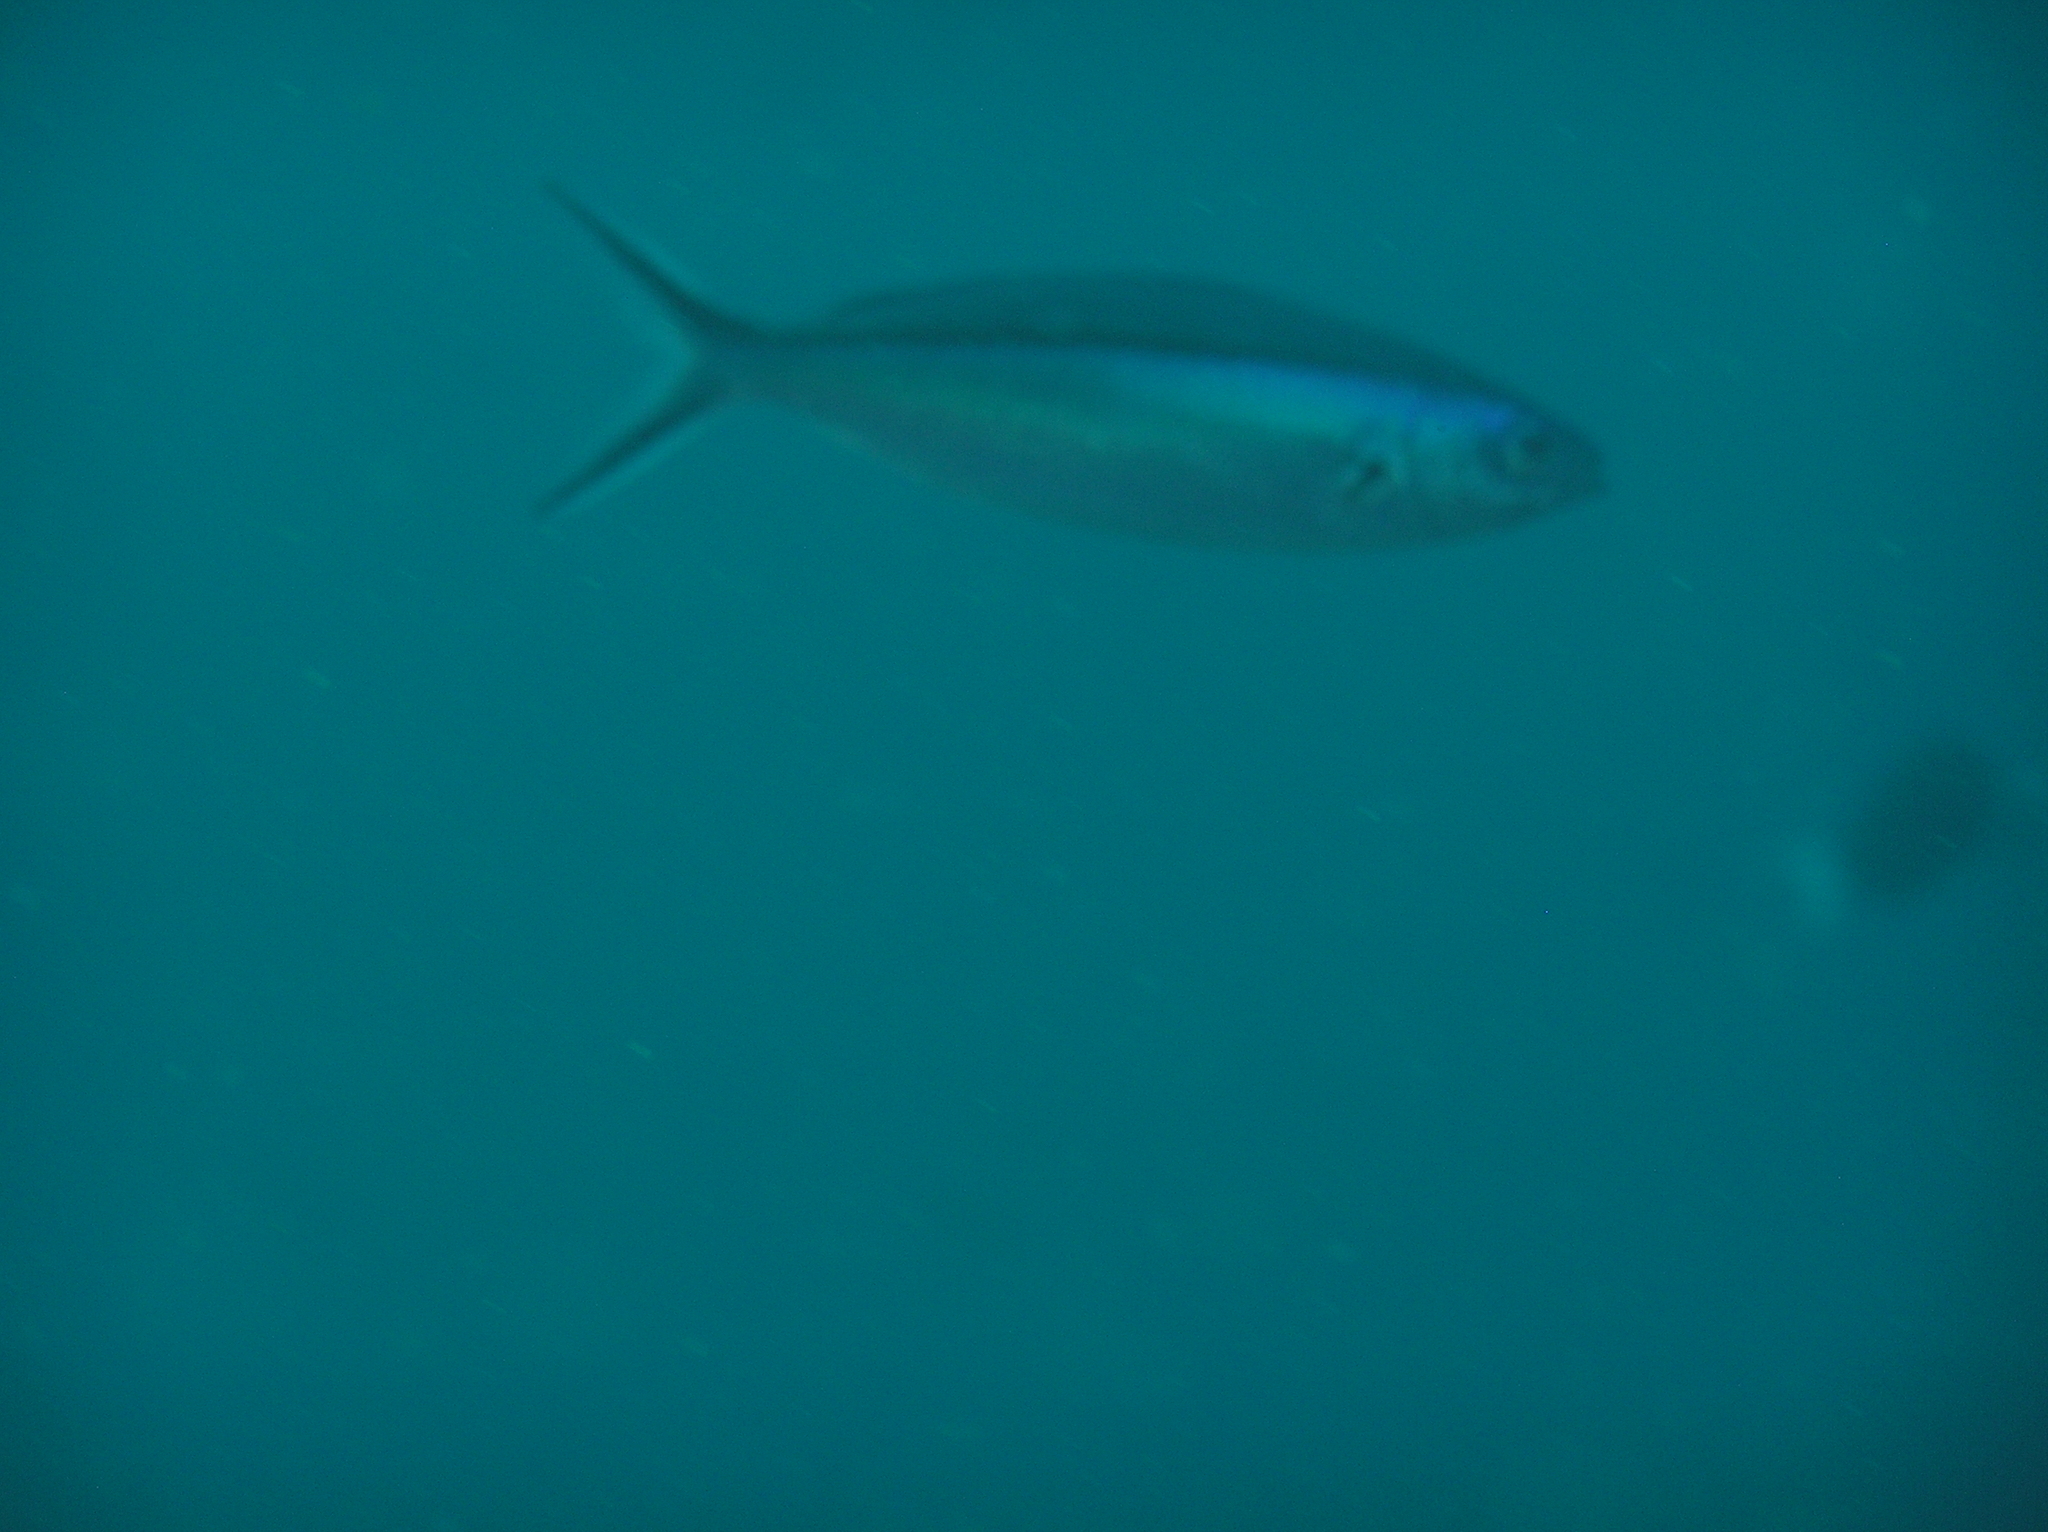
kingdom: Animalia
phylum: Chordata
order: Perciformes
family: Caesionidae
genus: Pterocaesio
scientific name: Pterocaesio tile
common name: Dark-banded fusilier
